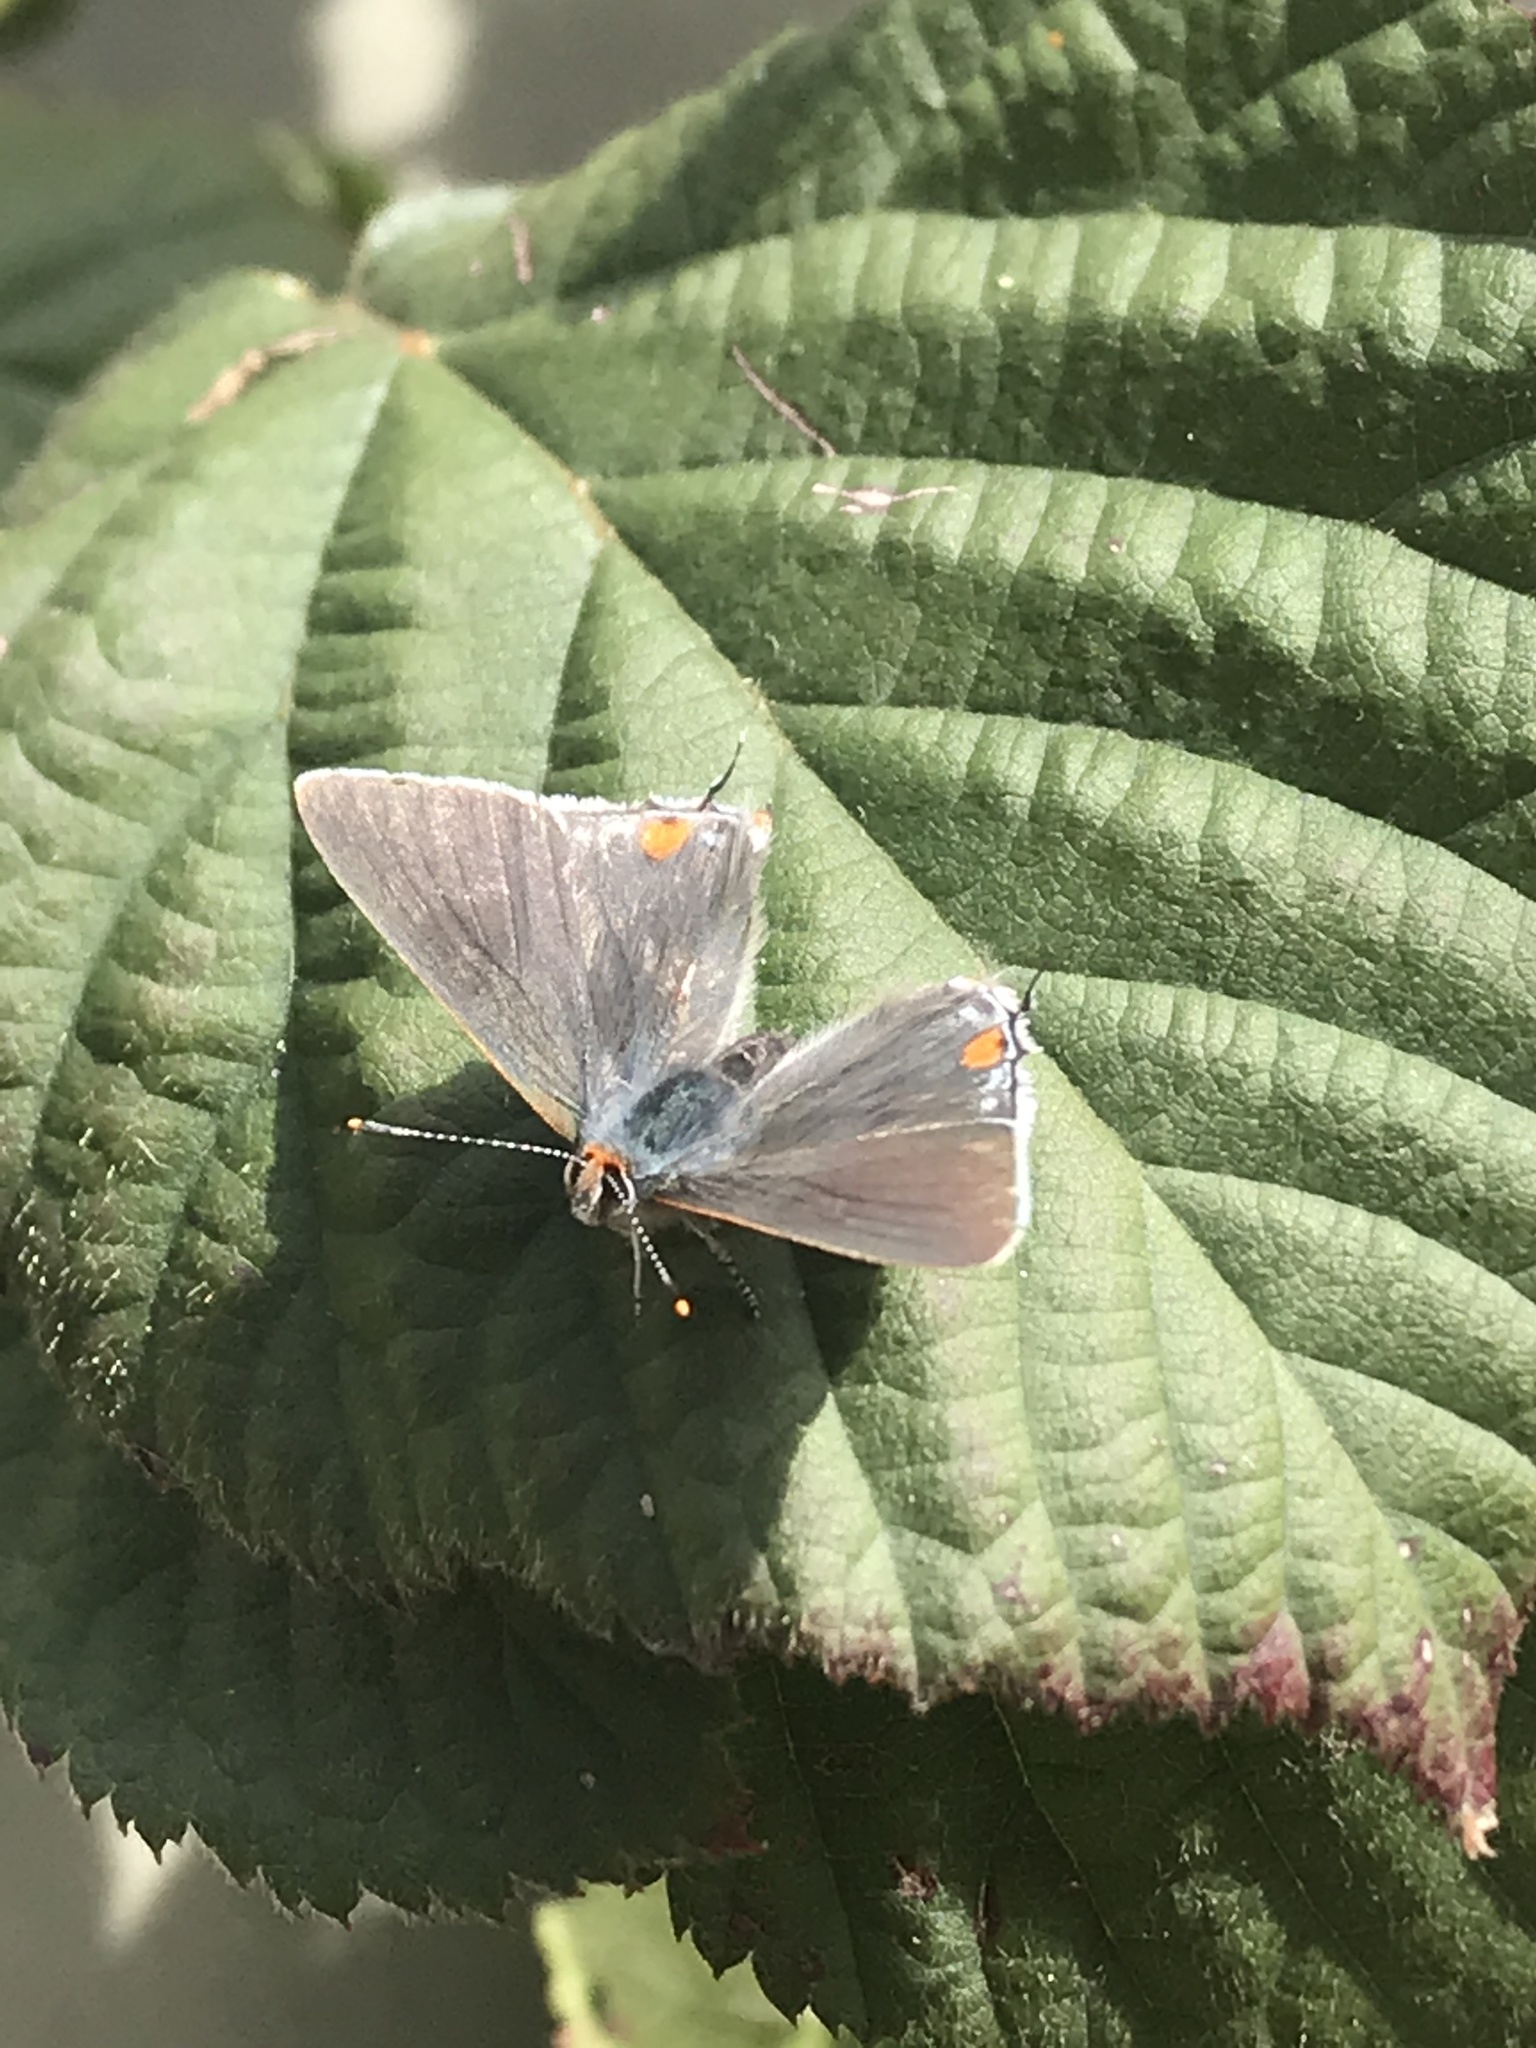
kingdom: Animalia
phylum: Arthropoda
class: Insecta
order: Lepidoptera
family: Lycaenidae
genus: Strymon
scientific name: Strymon melinus
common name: Gray hairstreak
